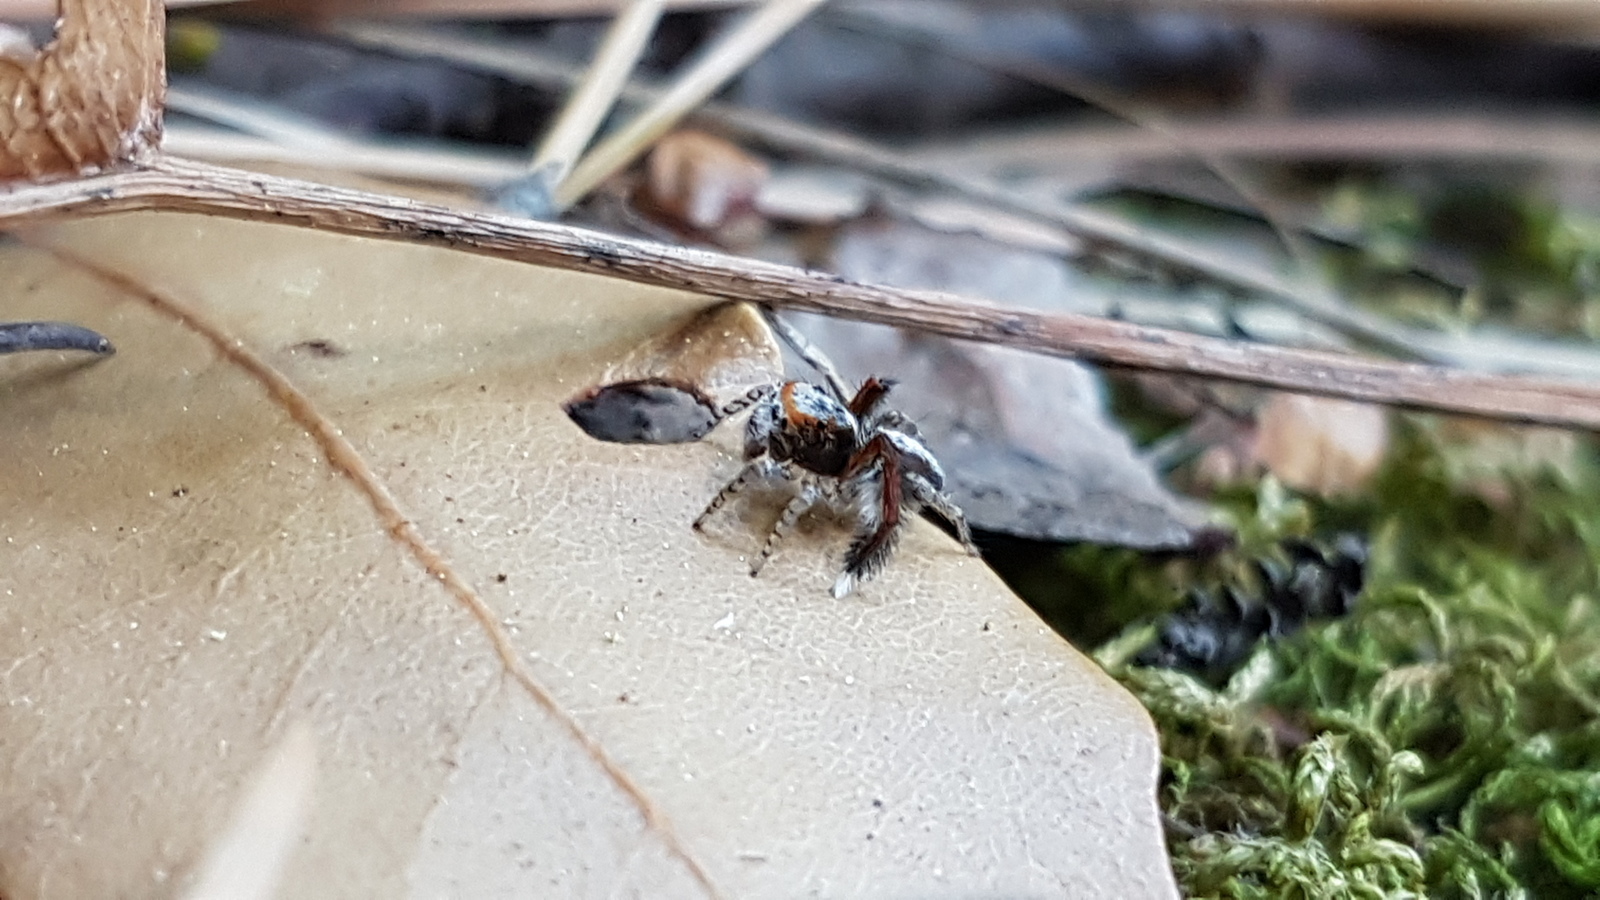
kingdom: Animalia
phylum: Arthropoda
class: Arachnida
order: Araneae
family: Salticidae
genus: Saitis
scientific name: Saitis barbipes
